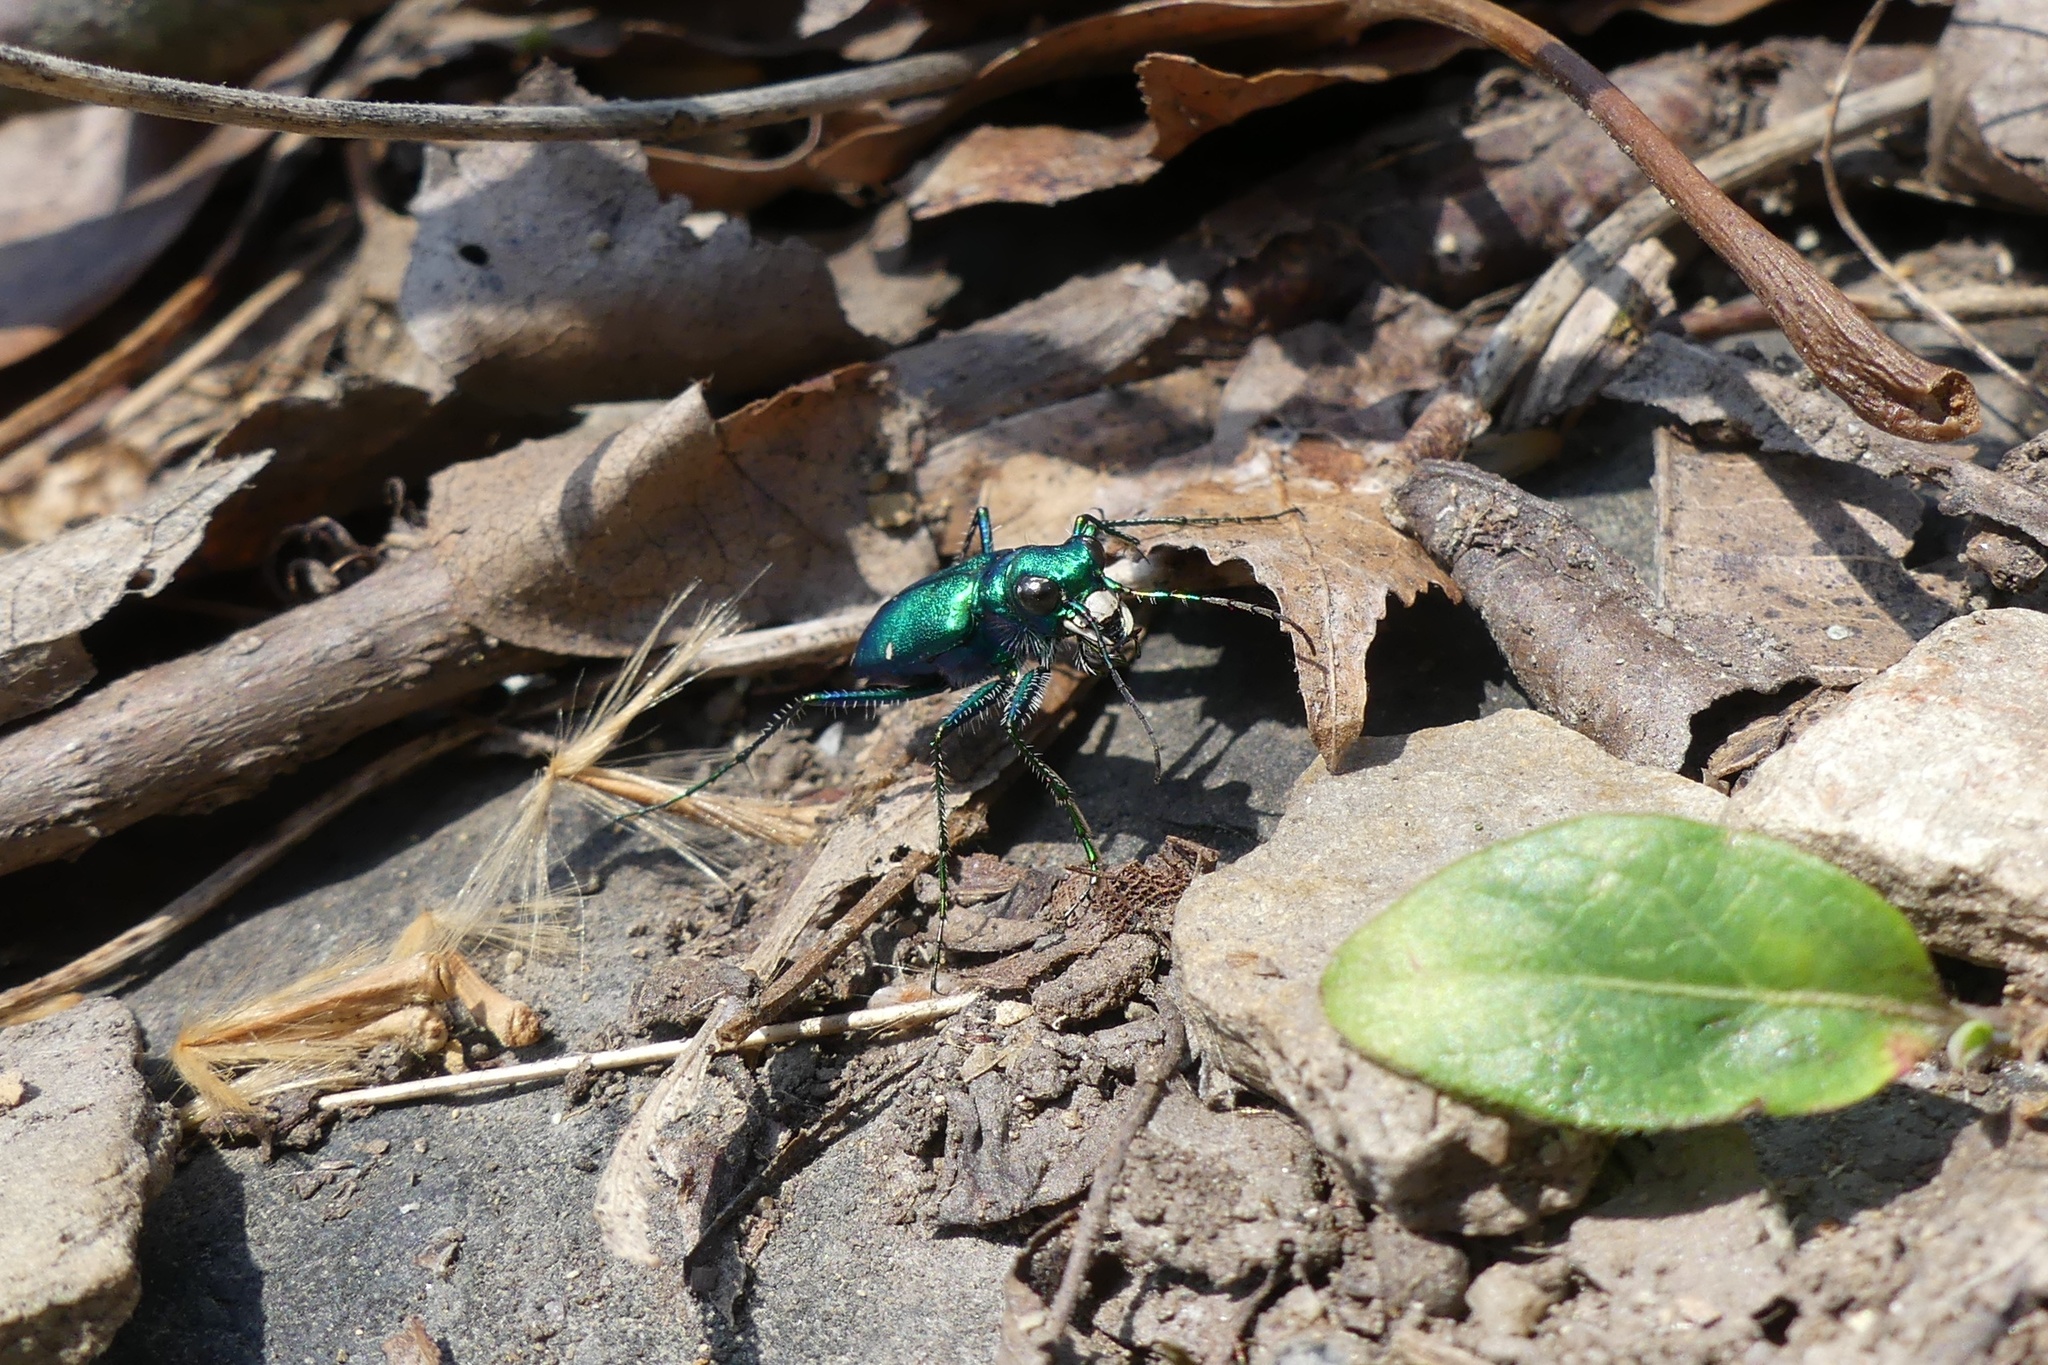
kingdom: Animalia
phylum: Arthropoda
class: Insecta
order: Coleoptera
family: Carabidae
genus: Cicindela
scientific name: Cicindela sexguttata
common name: Six-spotted tiger beetle
